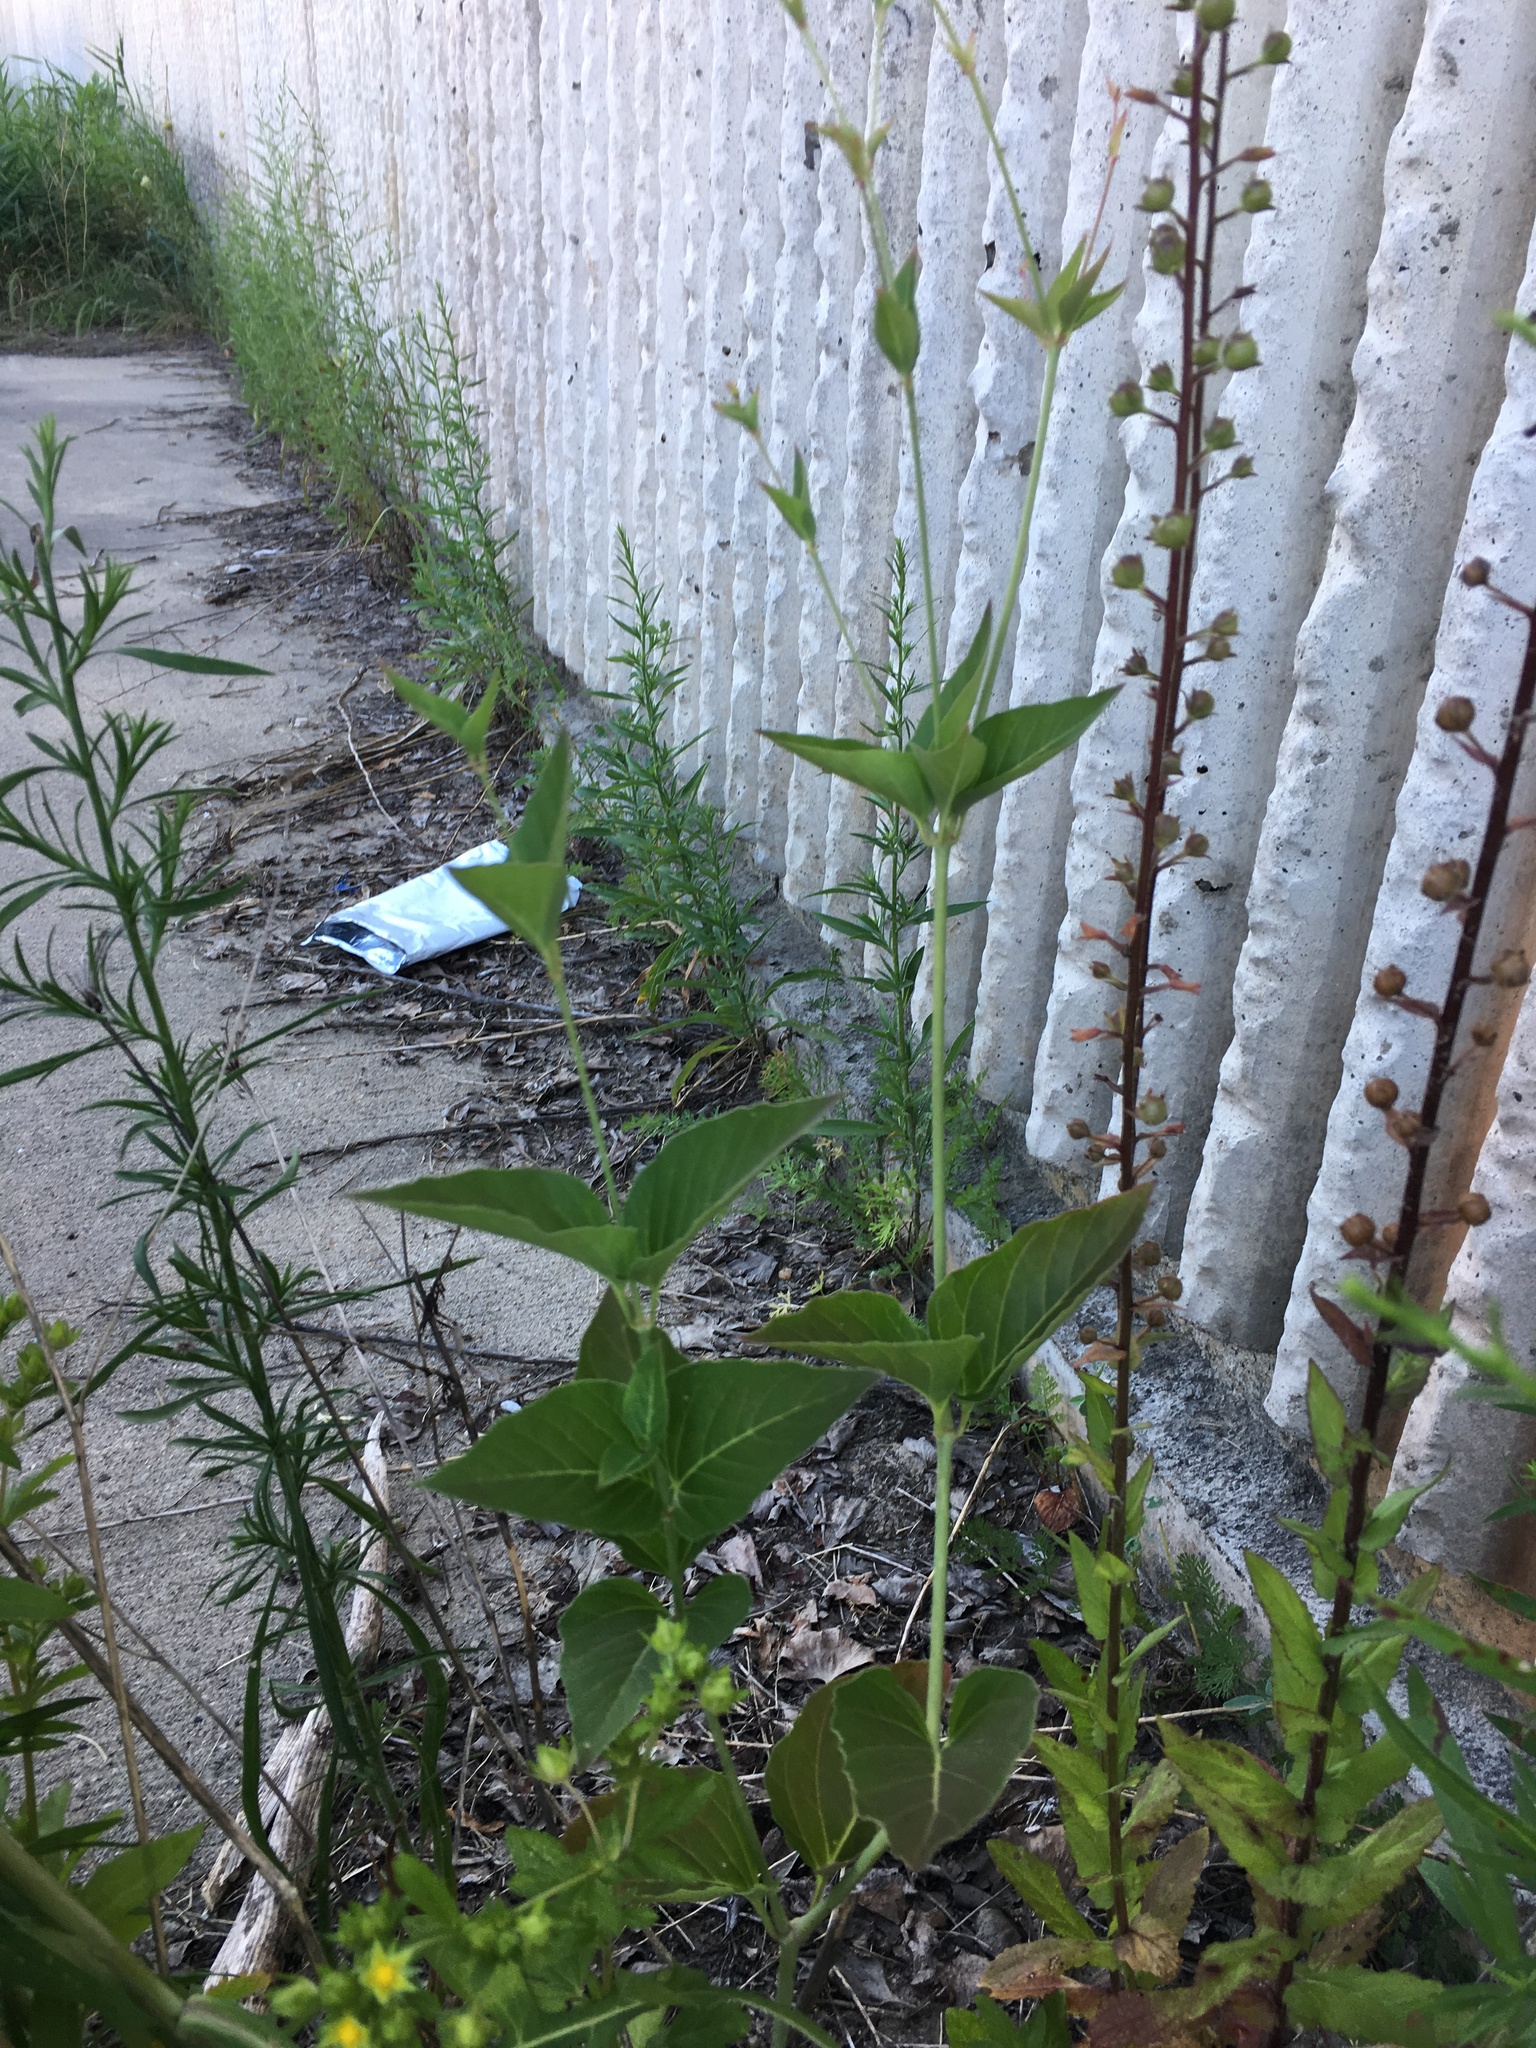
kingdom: Plantae
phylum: Tracheophyta
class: Magnoliopsida
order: Lamiales
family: Scrophulariaceae
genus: Verbascum
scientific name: Verbascum blattaria
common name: Moth mullein
